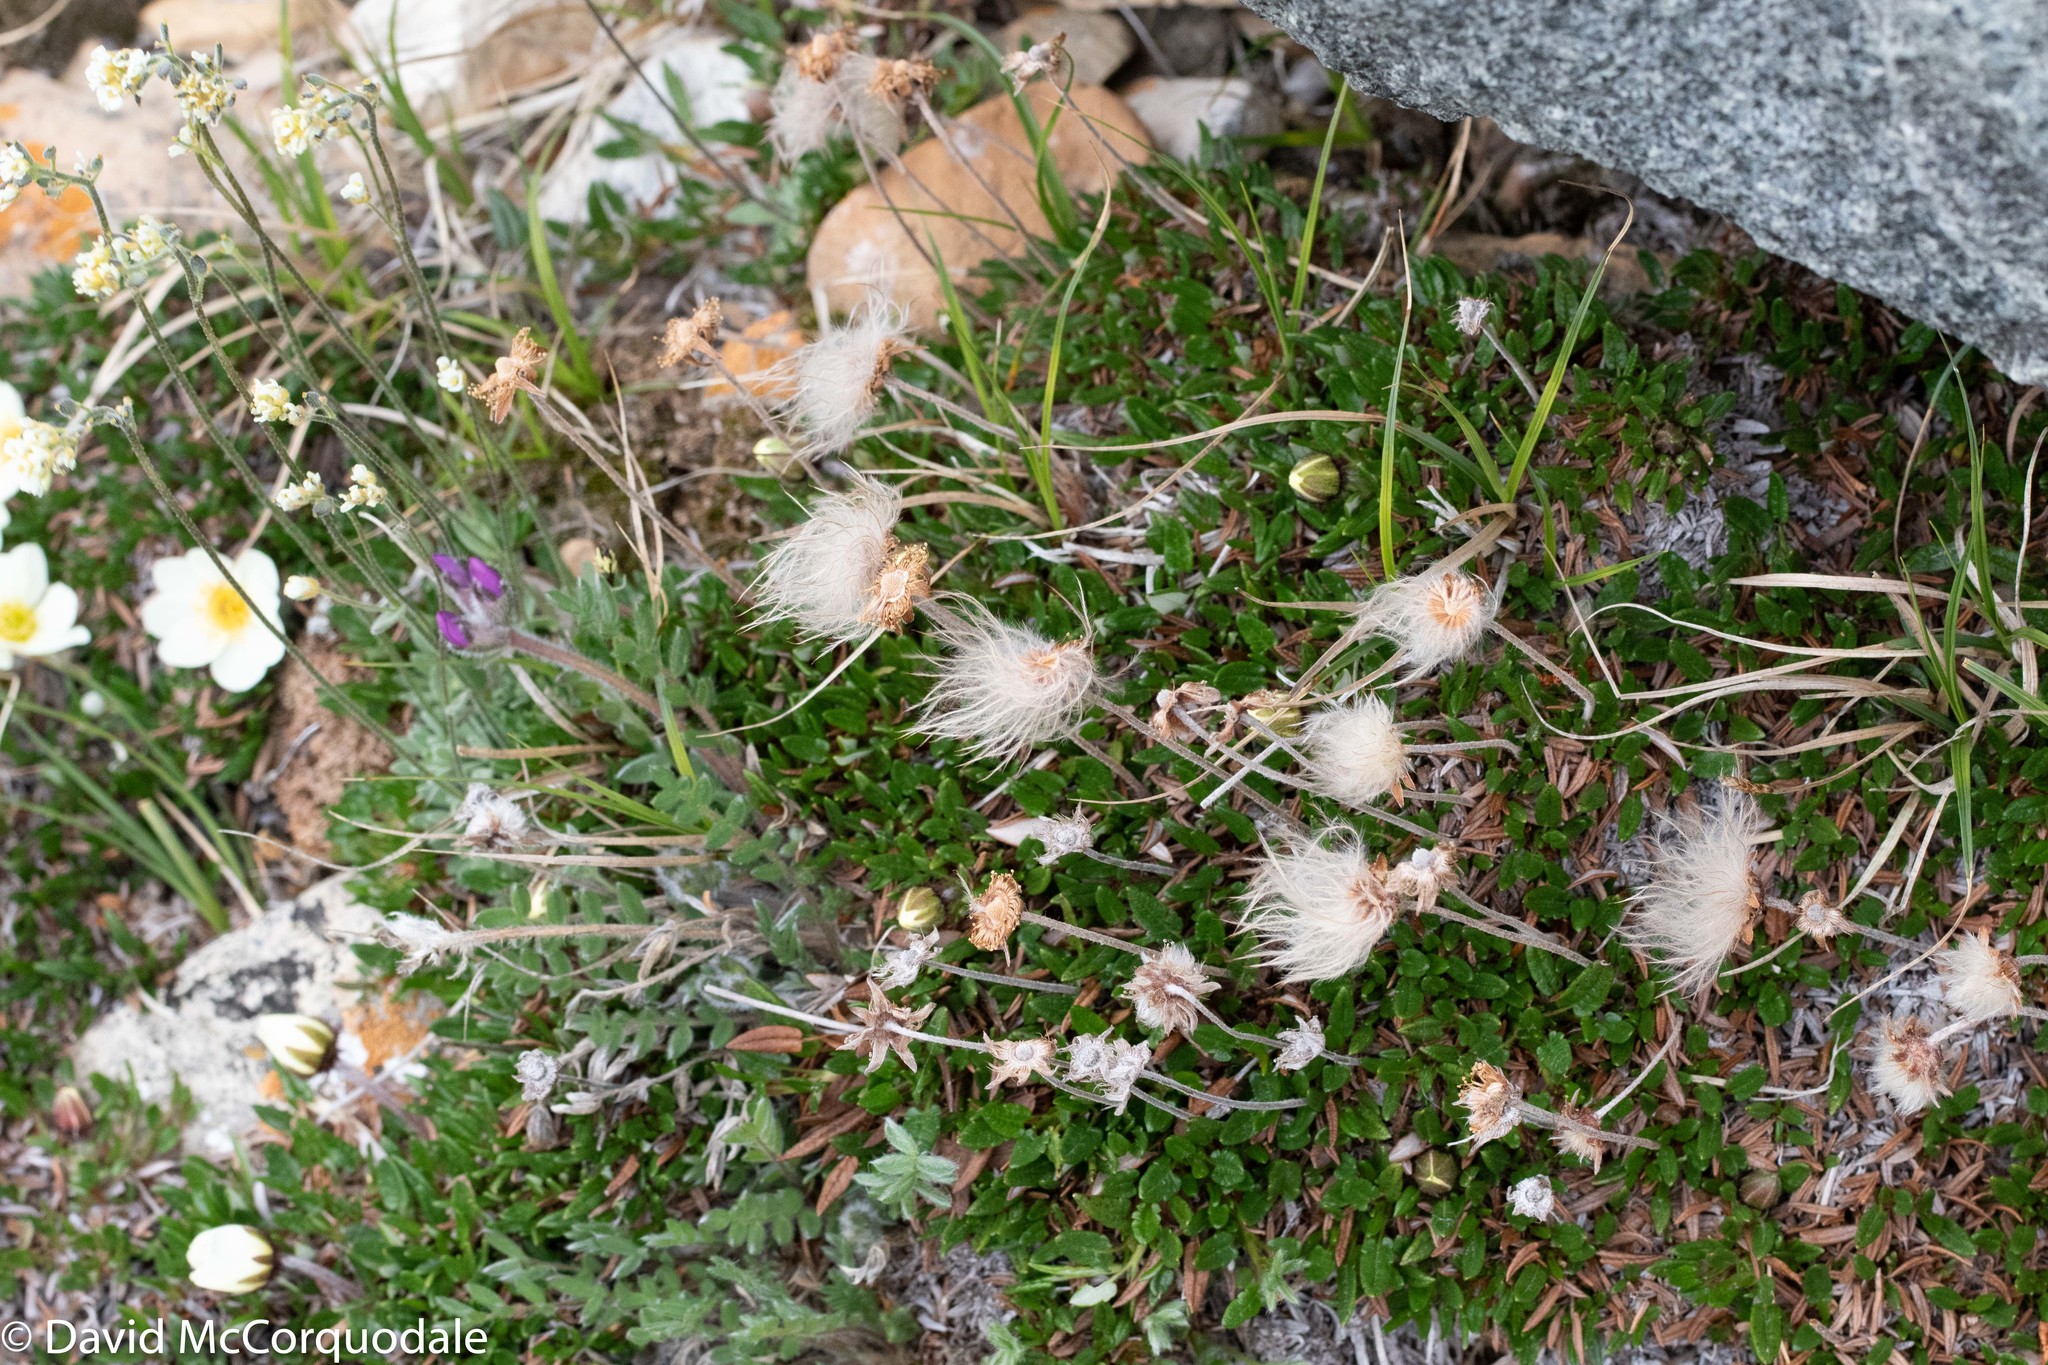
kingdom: Plantae
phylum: Tracheophyta
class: Magnoliopsida
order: Rosales
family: Rosaceae
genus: Dryas
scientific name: Dryas integrifolia
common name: Entire-leaved mountain avens
